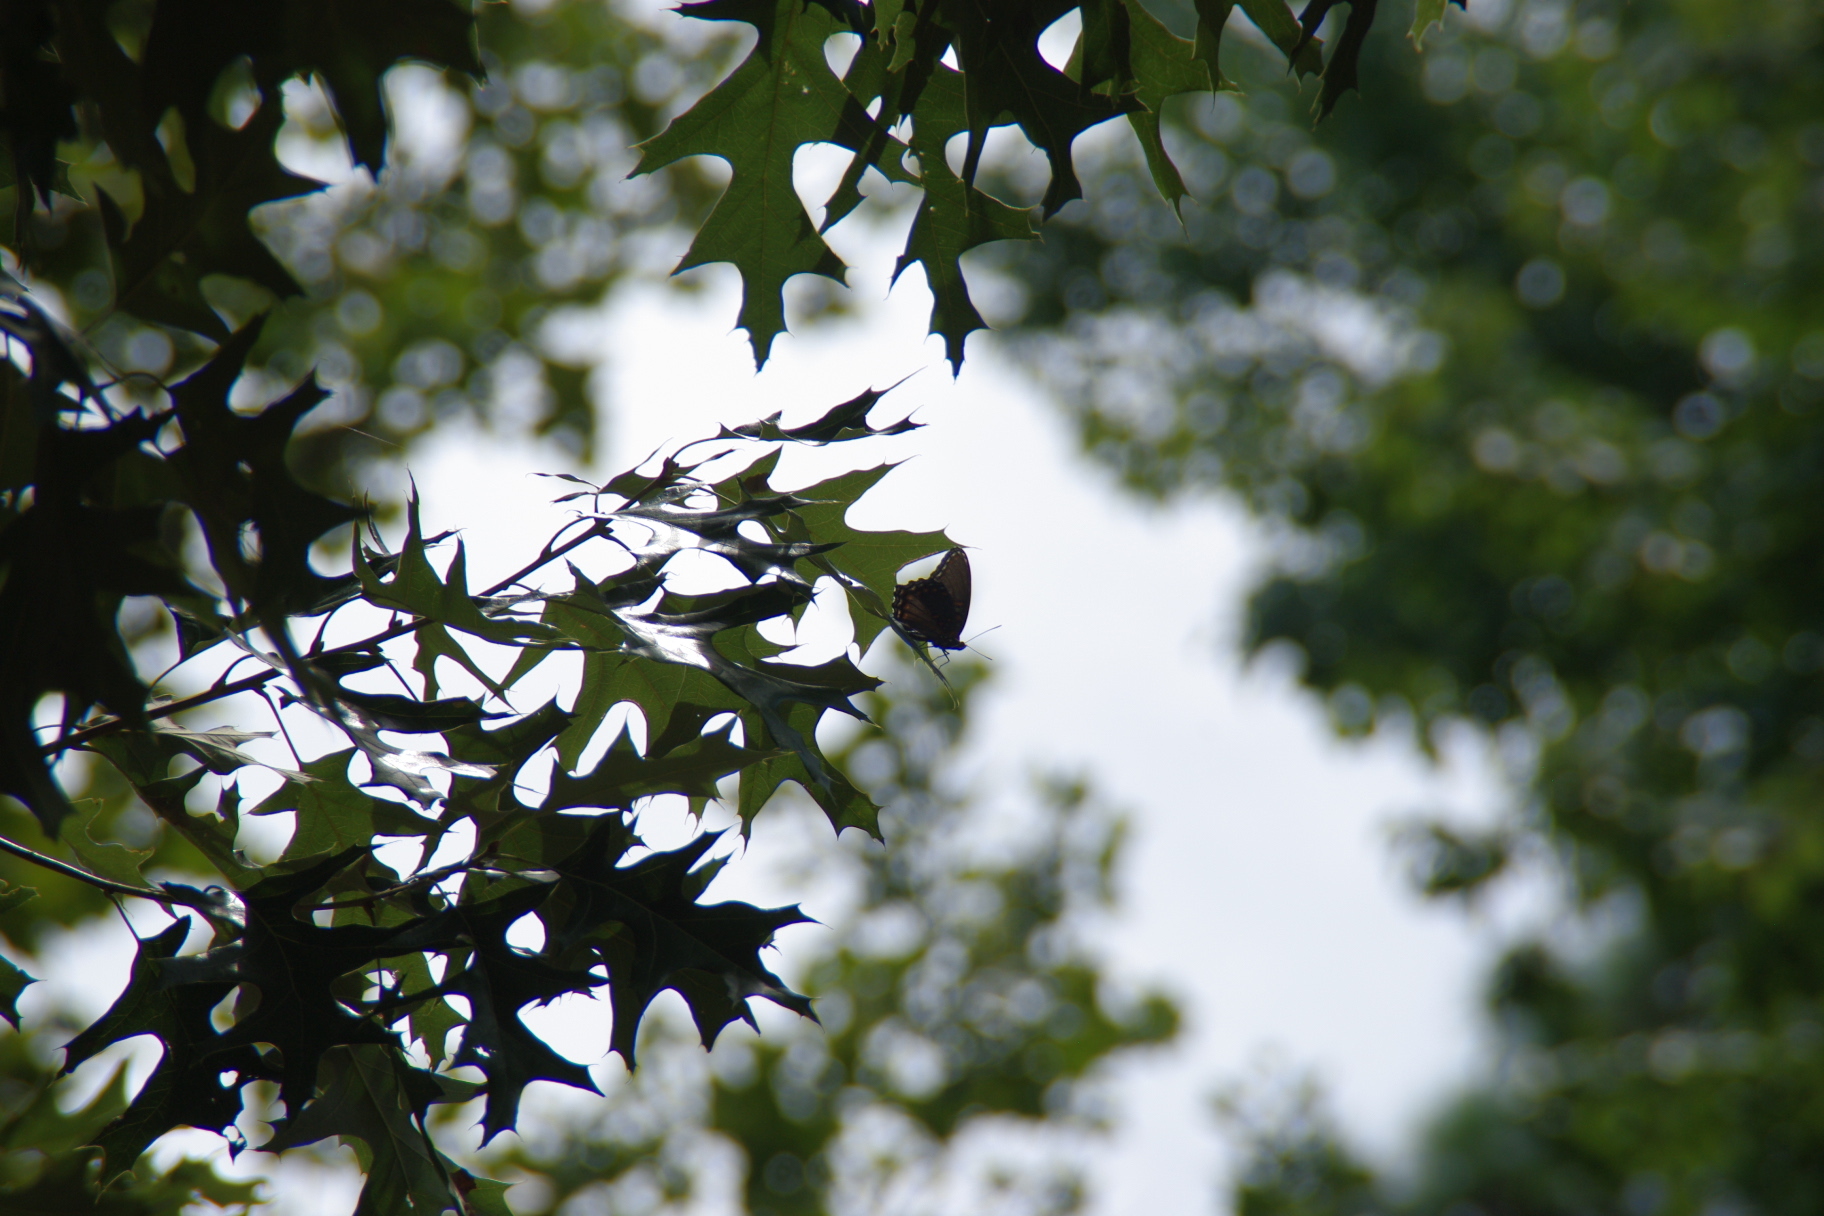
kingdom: Animalia
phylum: Arthropoda
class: Insecta
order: Lepidoptera
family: Nymphalidae
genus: Limenitis
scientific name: Limenitis astyanax
